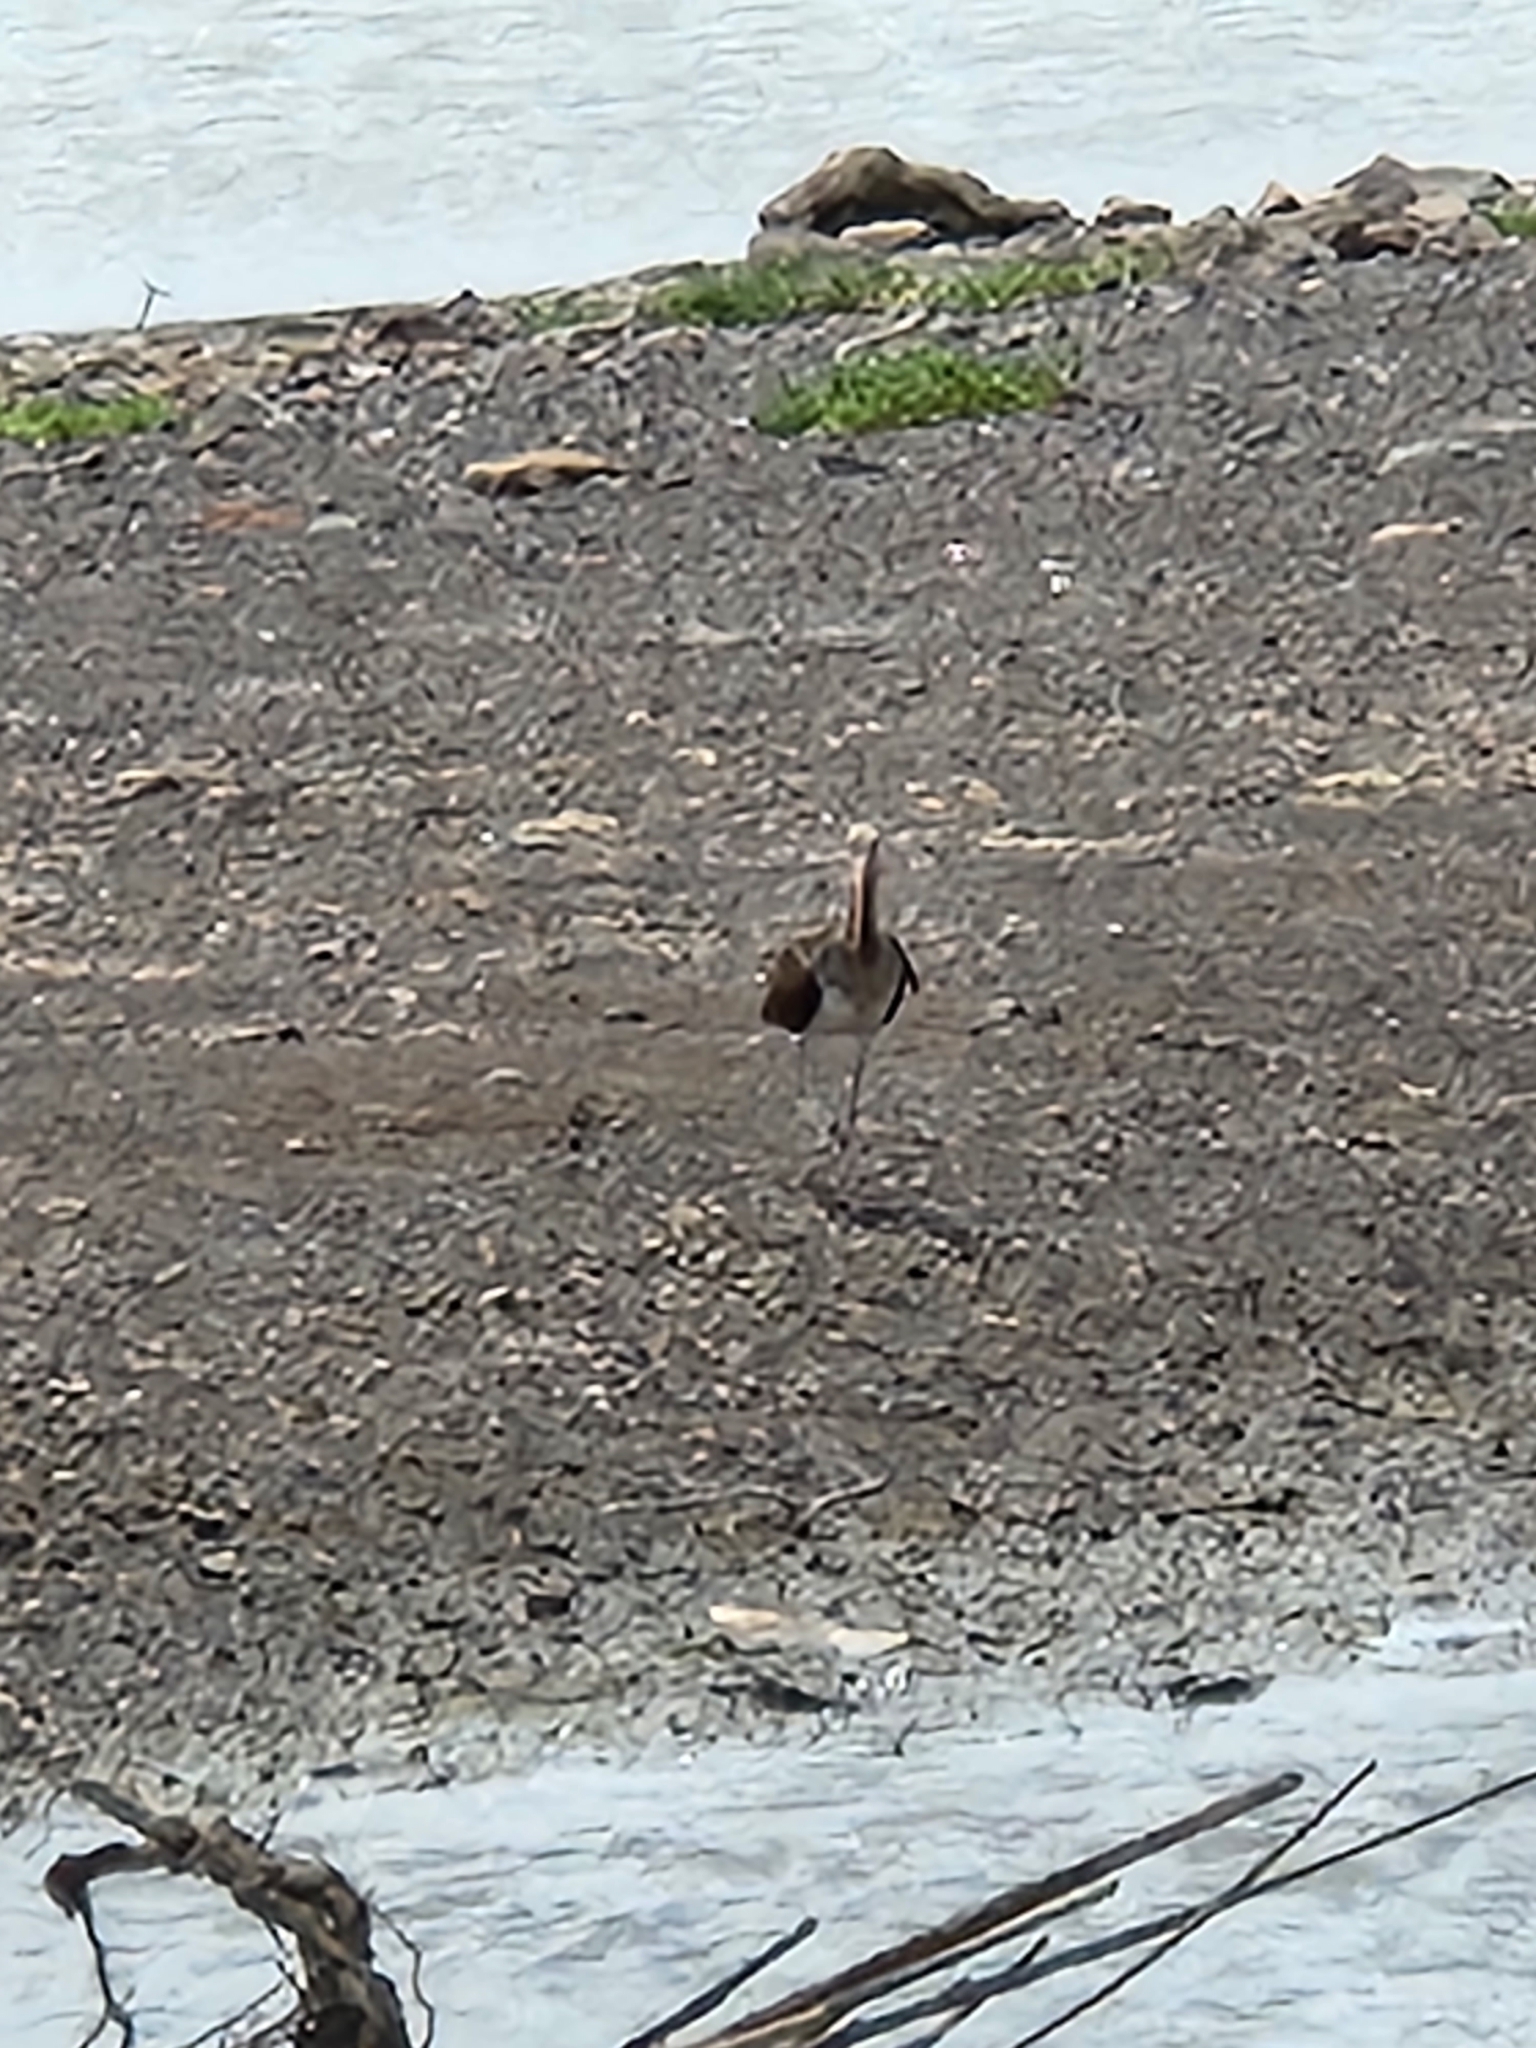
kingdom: Animalia
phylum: Chordata
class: Aves
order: Pelecaniformes
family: Threskiornithidae
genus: Eudocimus
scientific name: Eudocimus albus
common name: White ibis
